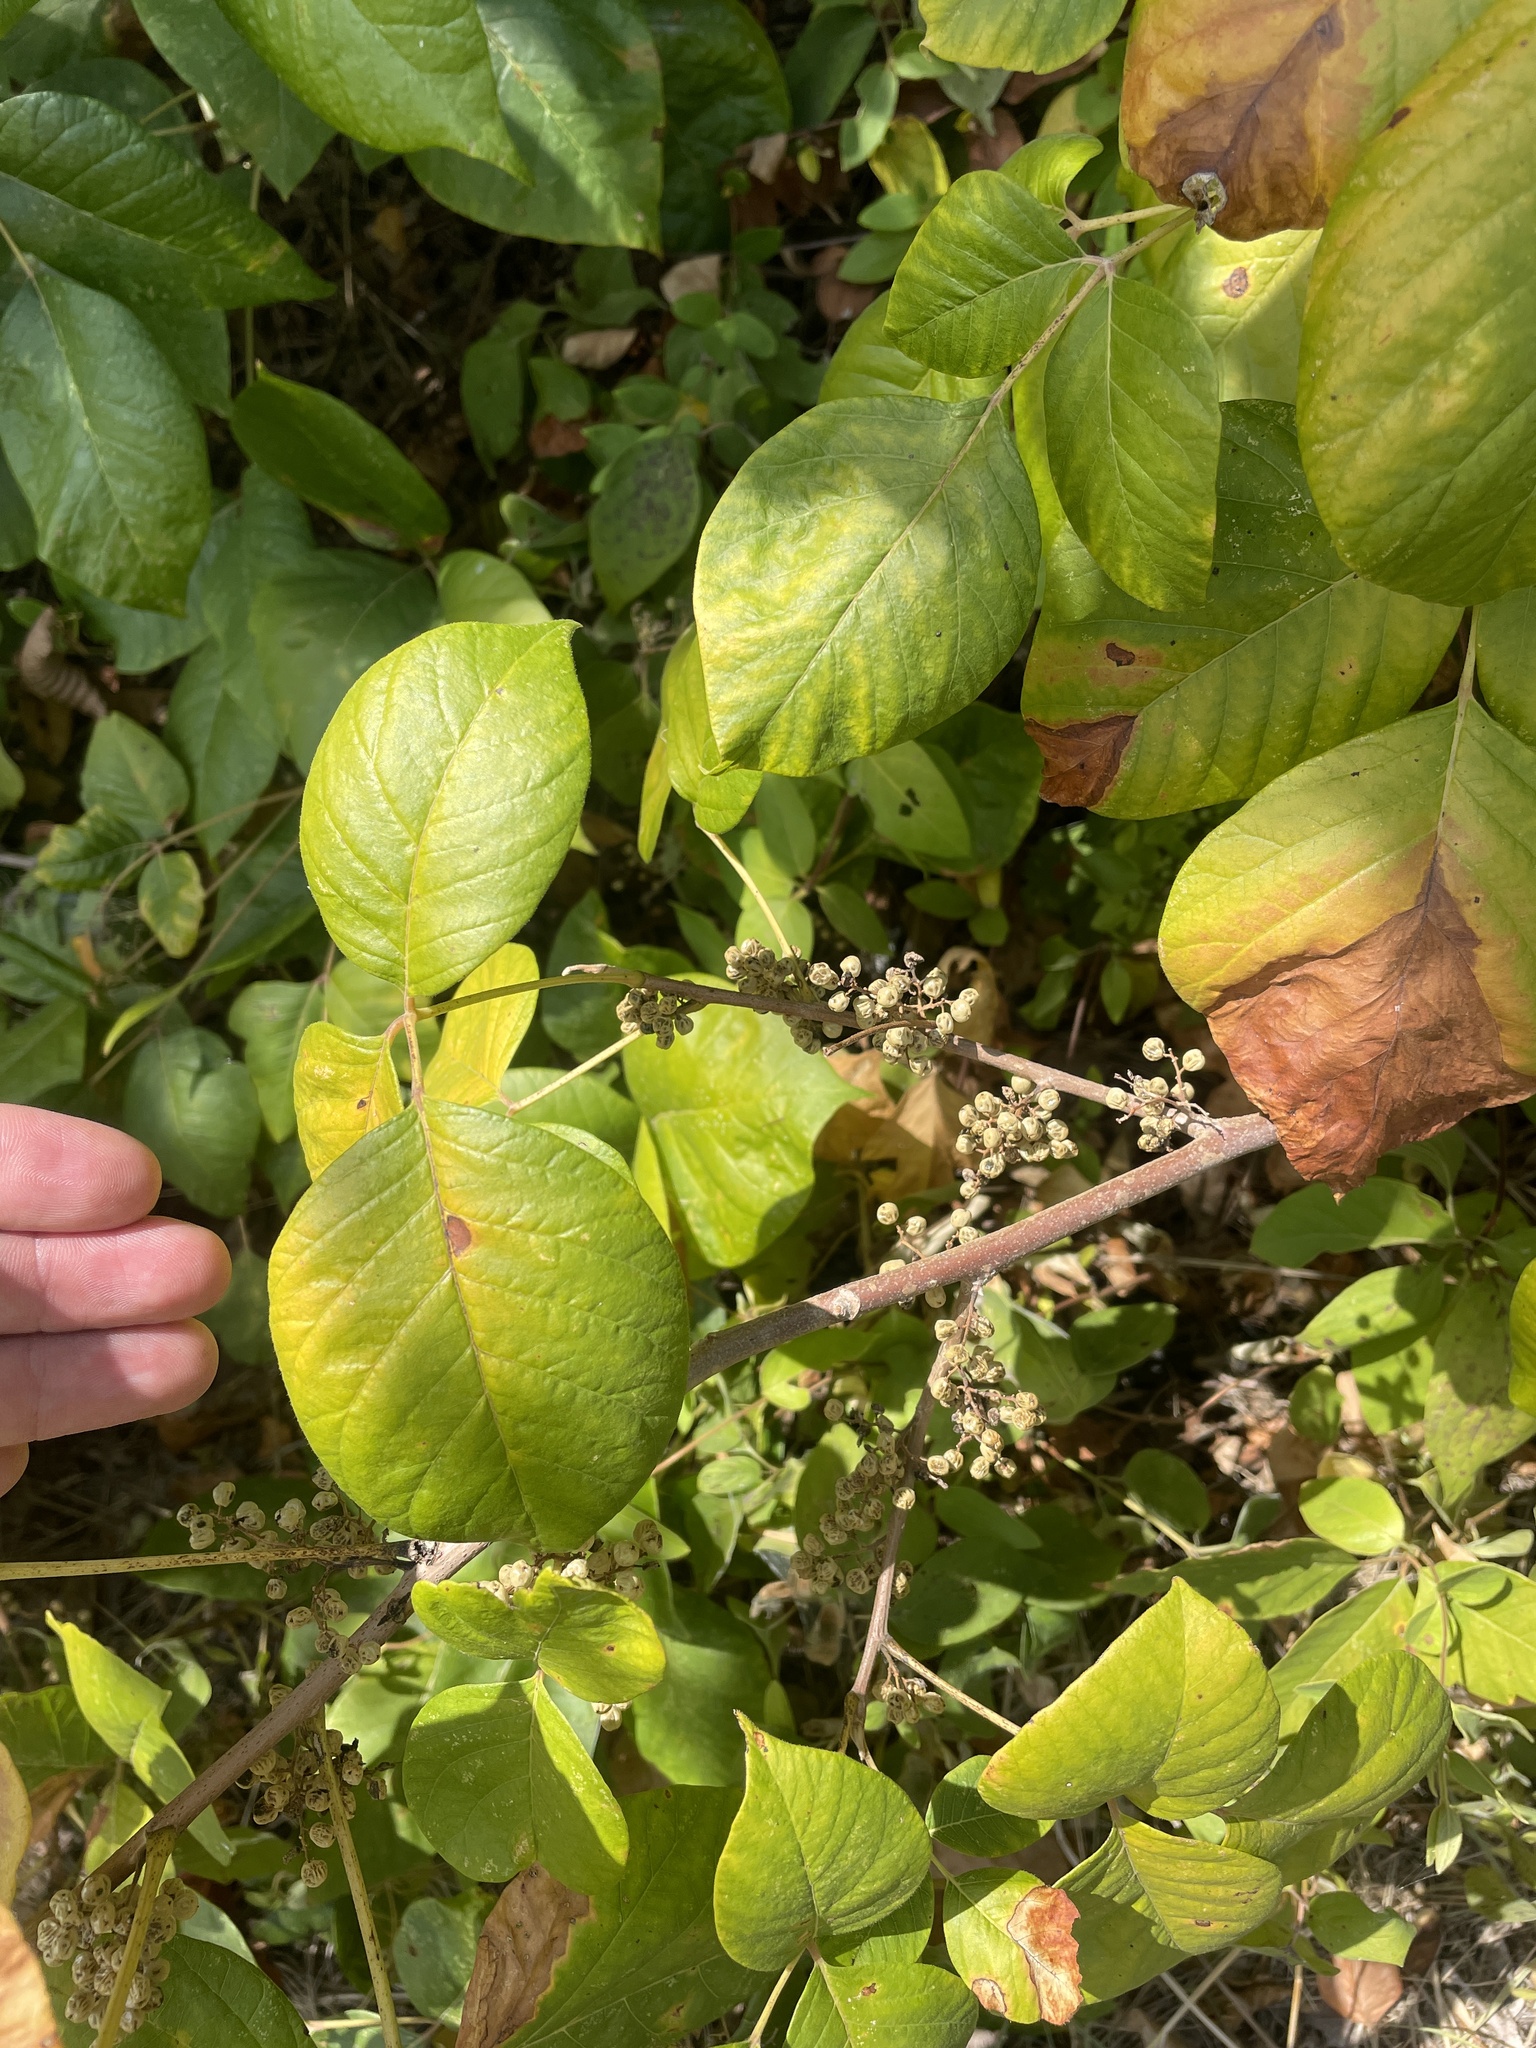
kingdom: Plantae
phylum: Tracheophyta
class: Magnoliopsida
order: Sapindales
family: Anacardiaceae
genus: Toxicodendron
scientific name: Toxicodendron radicans
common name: Poison ivy
